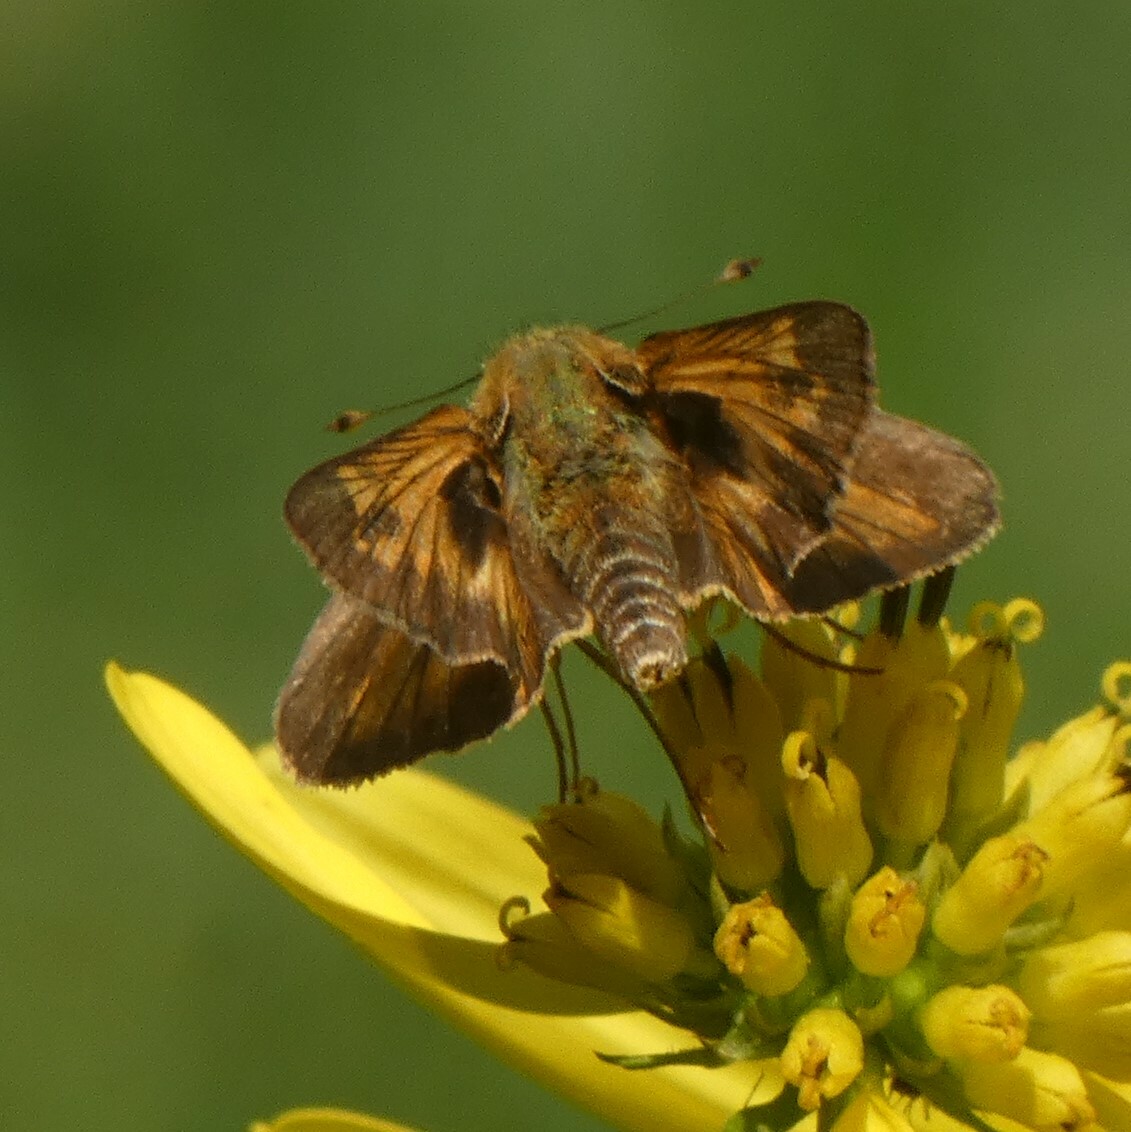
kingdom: Animalia
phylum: Arthropoda
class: Insecta
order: Lepidoptera
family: Hesperiidae
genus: Atalopedes
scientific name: Atalopedes
